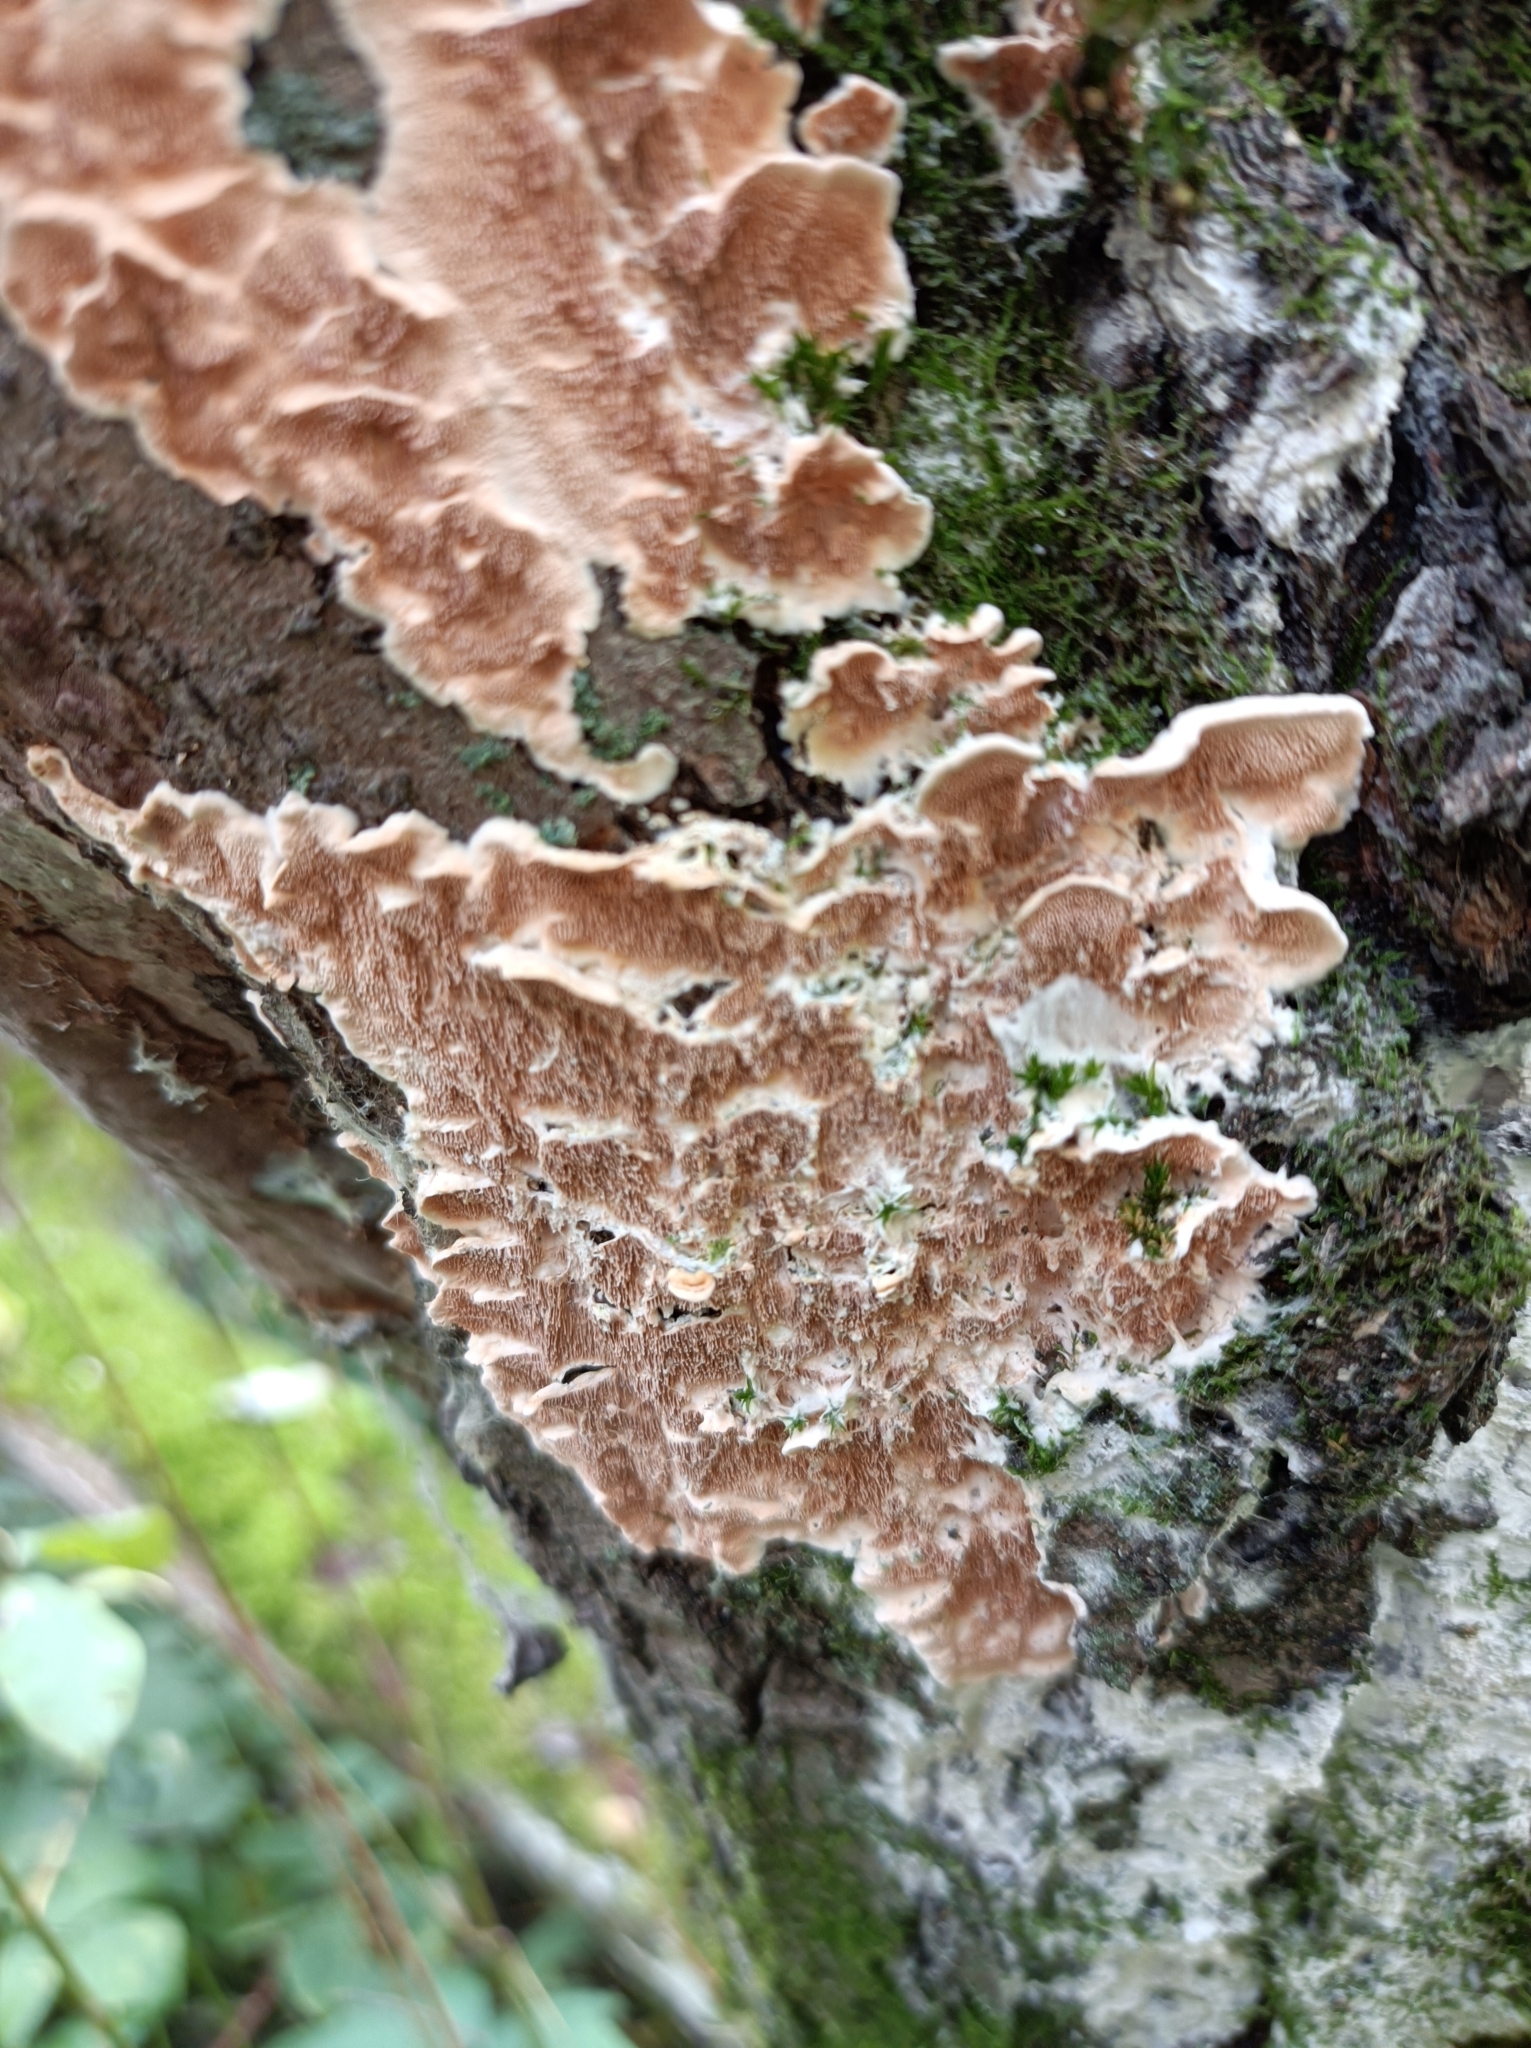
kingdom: Fungi
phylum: Basidiomycota
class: Agaricomycetes
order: Polyporales
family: Steccherinaceae
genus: Steccherinum
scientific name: Steccherinum ochraceum
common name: Ochre spreading tooth
